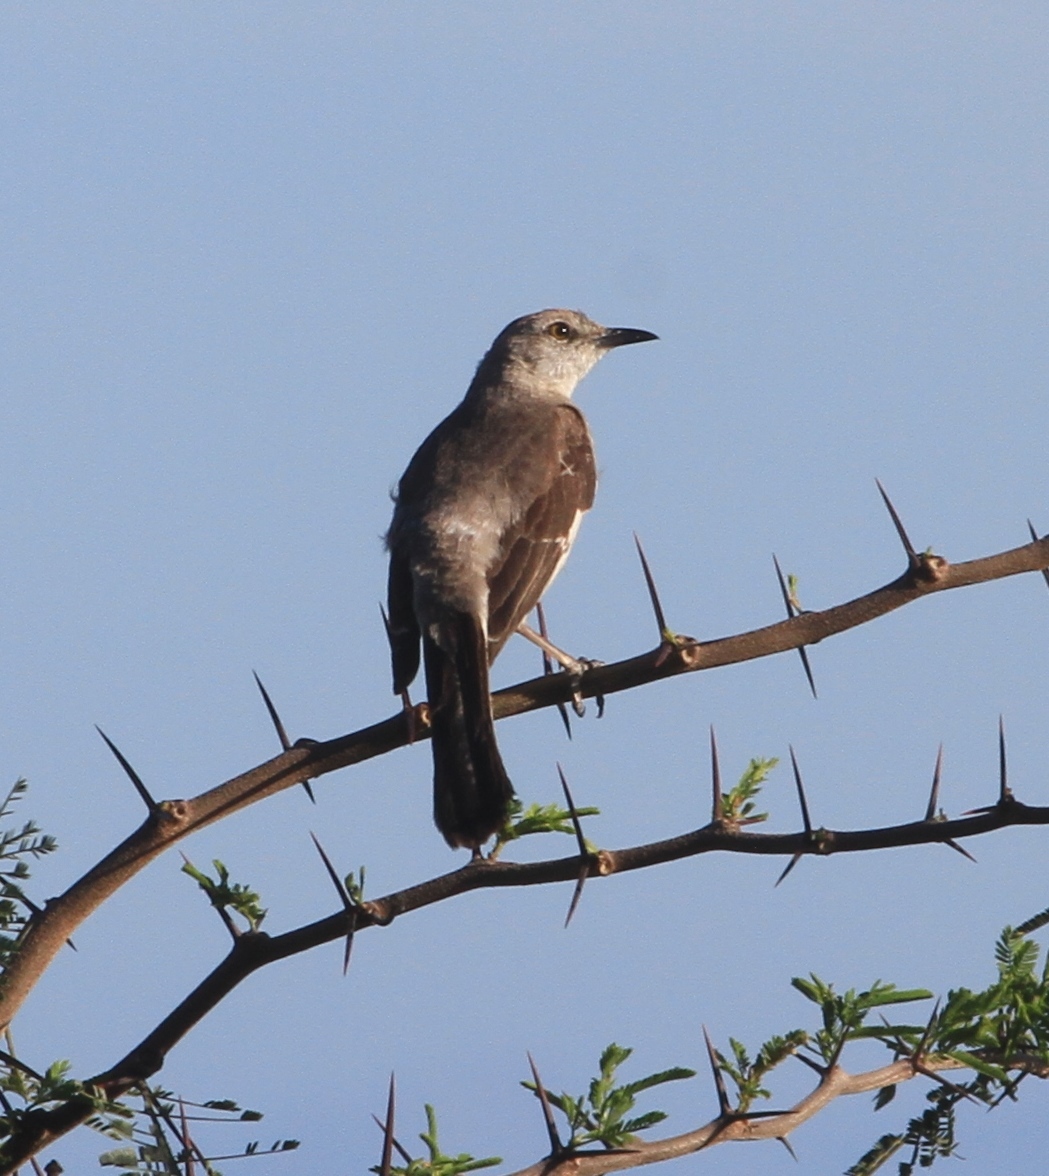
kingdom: Animalia
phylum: Chordata
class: Aves
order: Passeriformes
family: Mimidae
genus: Mimus
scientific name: Mimus polyglottos
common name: Northern mockingbird
